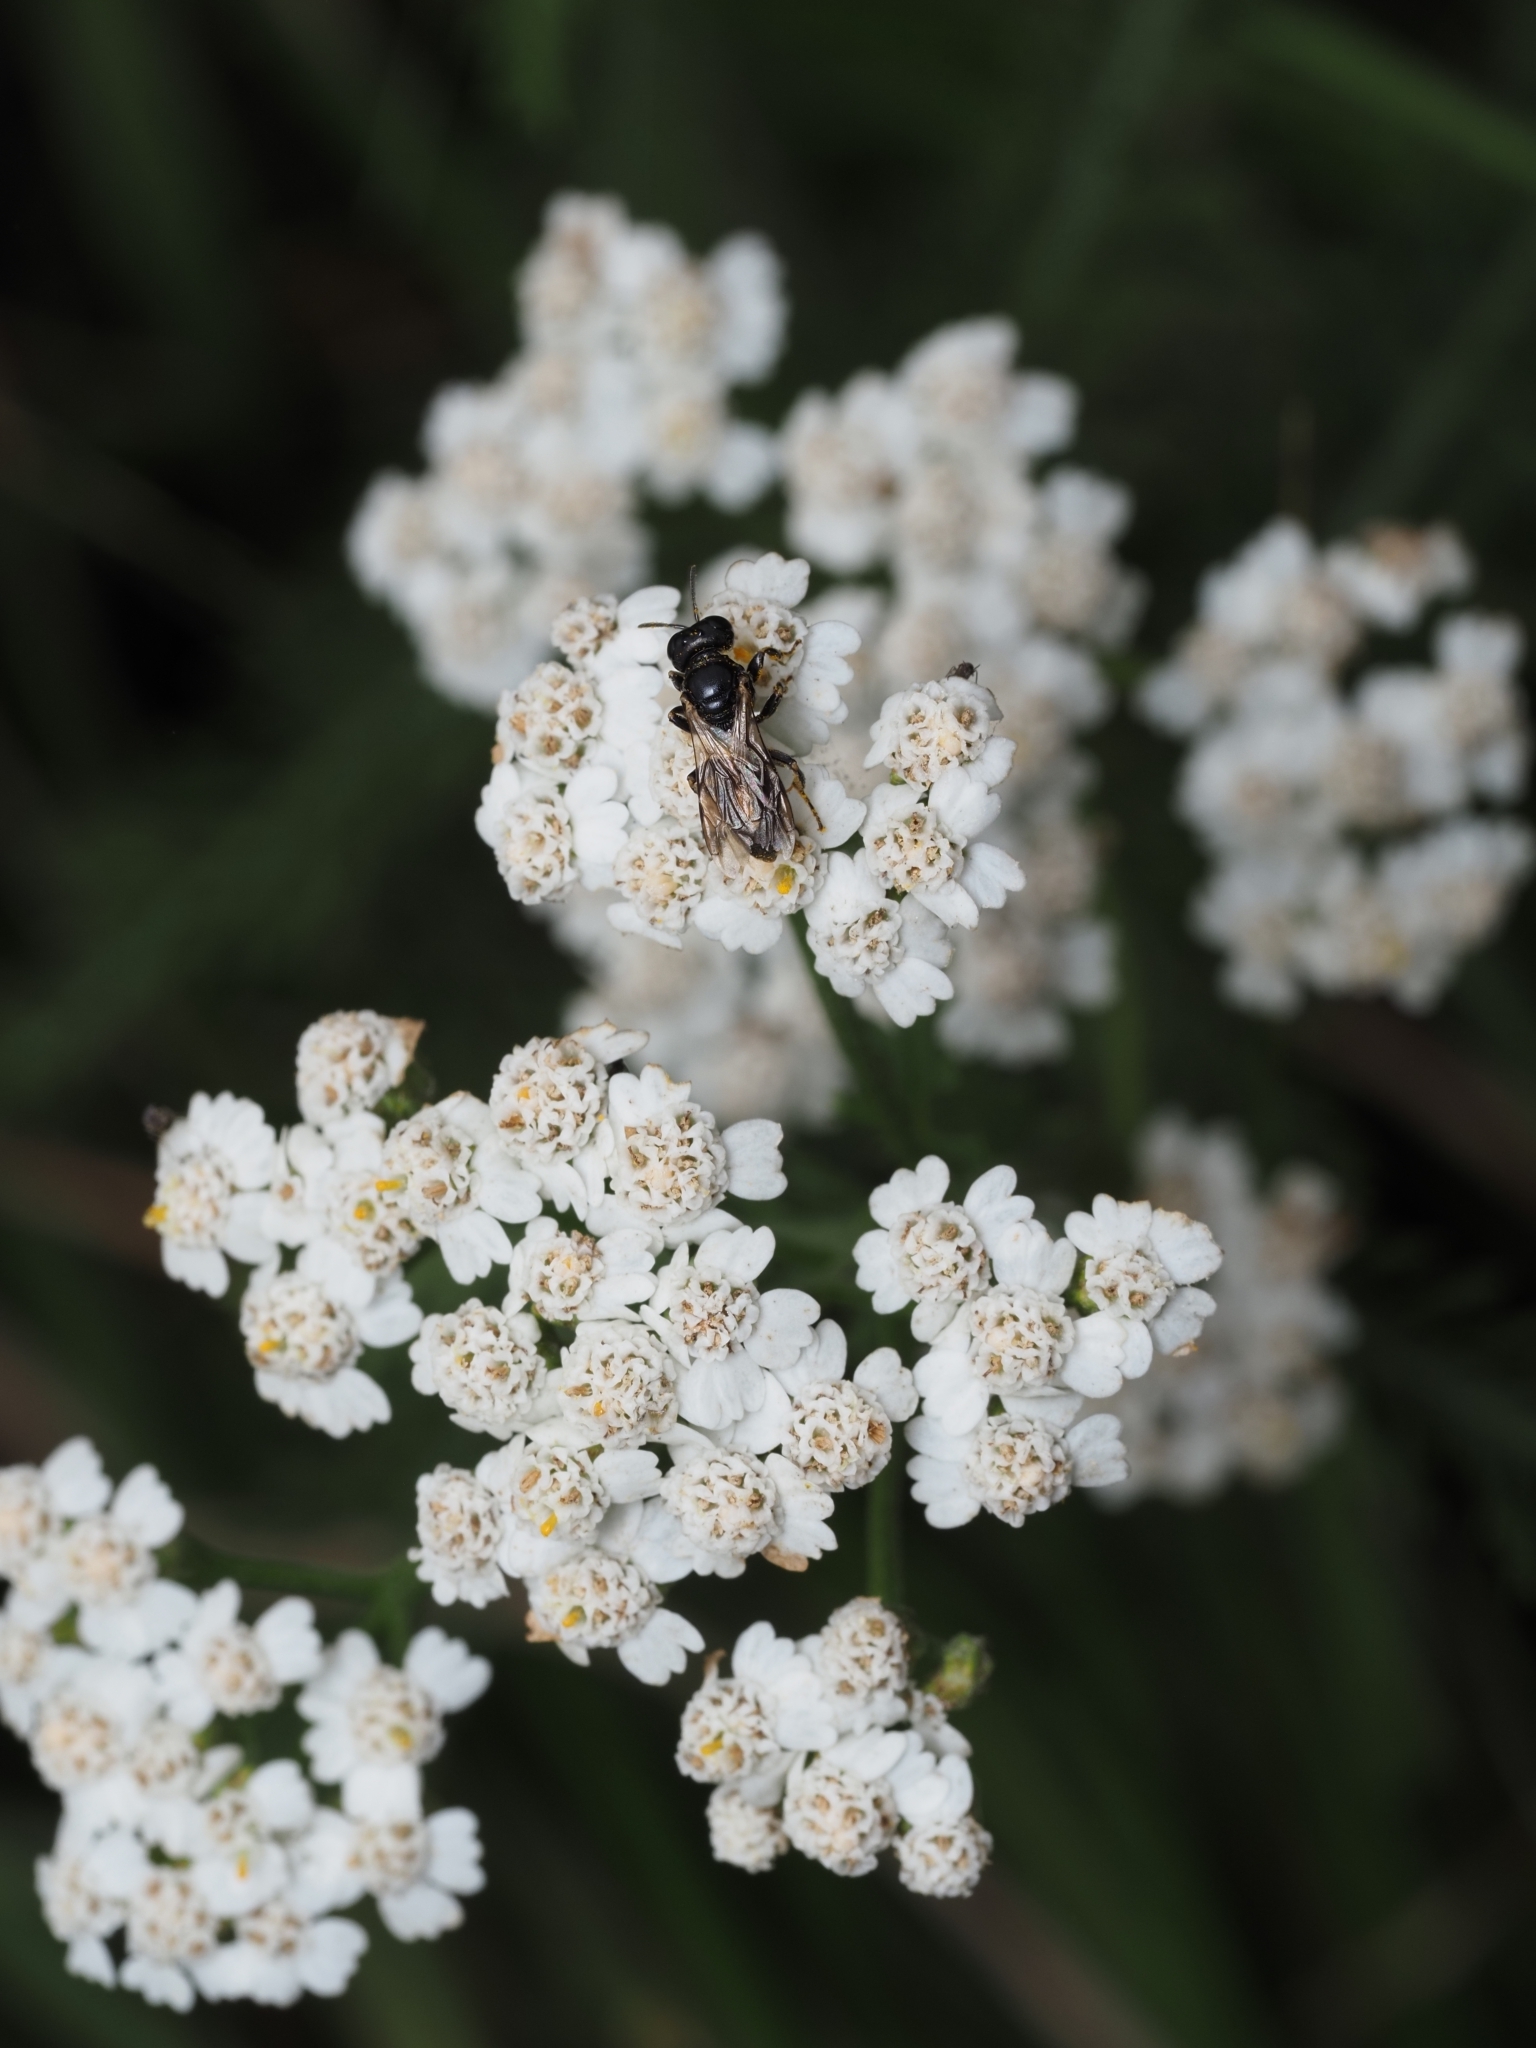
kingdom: Animalia
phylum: Arthropoda
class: Insecta
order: Diptera
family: Syrphidae
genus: Syritta
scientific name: Syritta pipiens
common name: Hover fly
